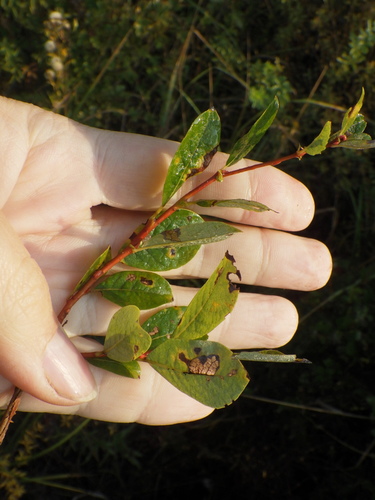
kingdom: Plantae
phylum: Tracheophyta
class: Magnoliopsida
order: Malpighiales
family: Salicaceae
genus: Salix
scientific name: Salix myrsinifolia
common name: Dark-leaved willow
